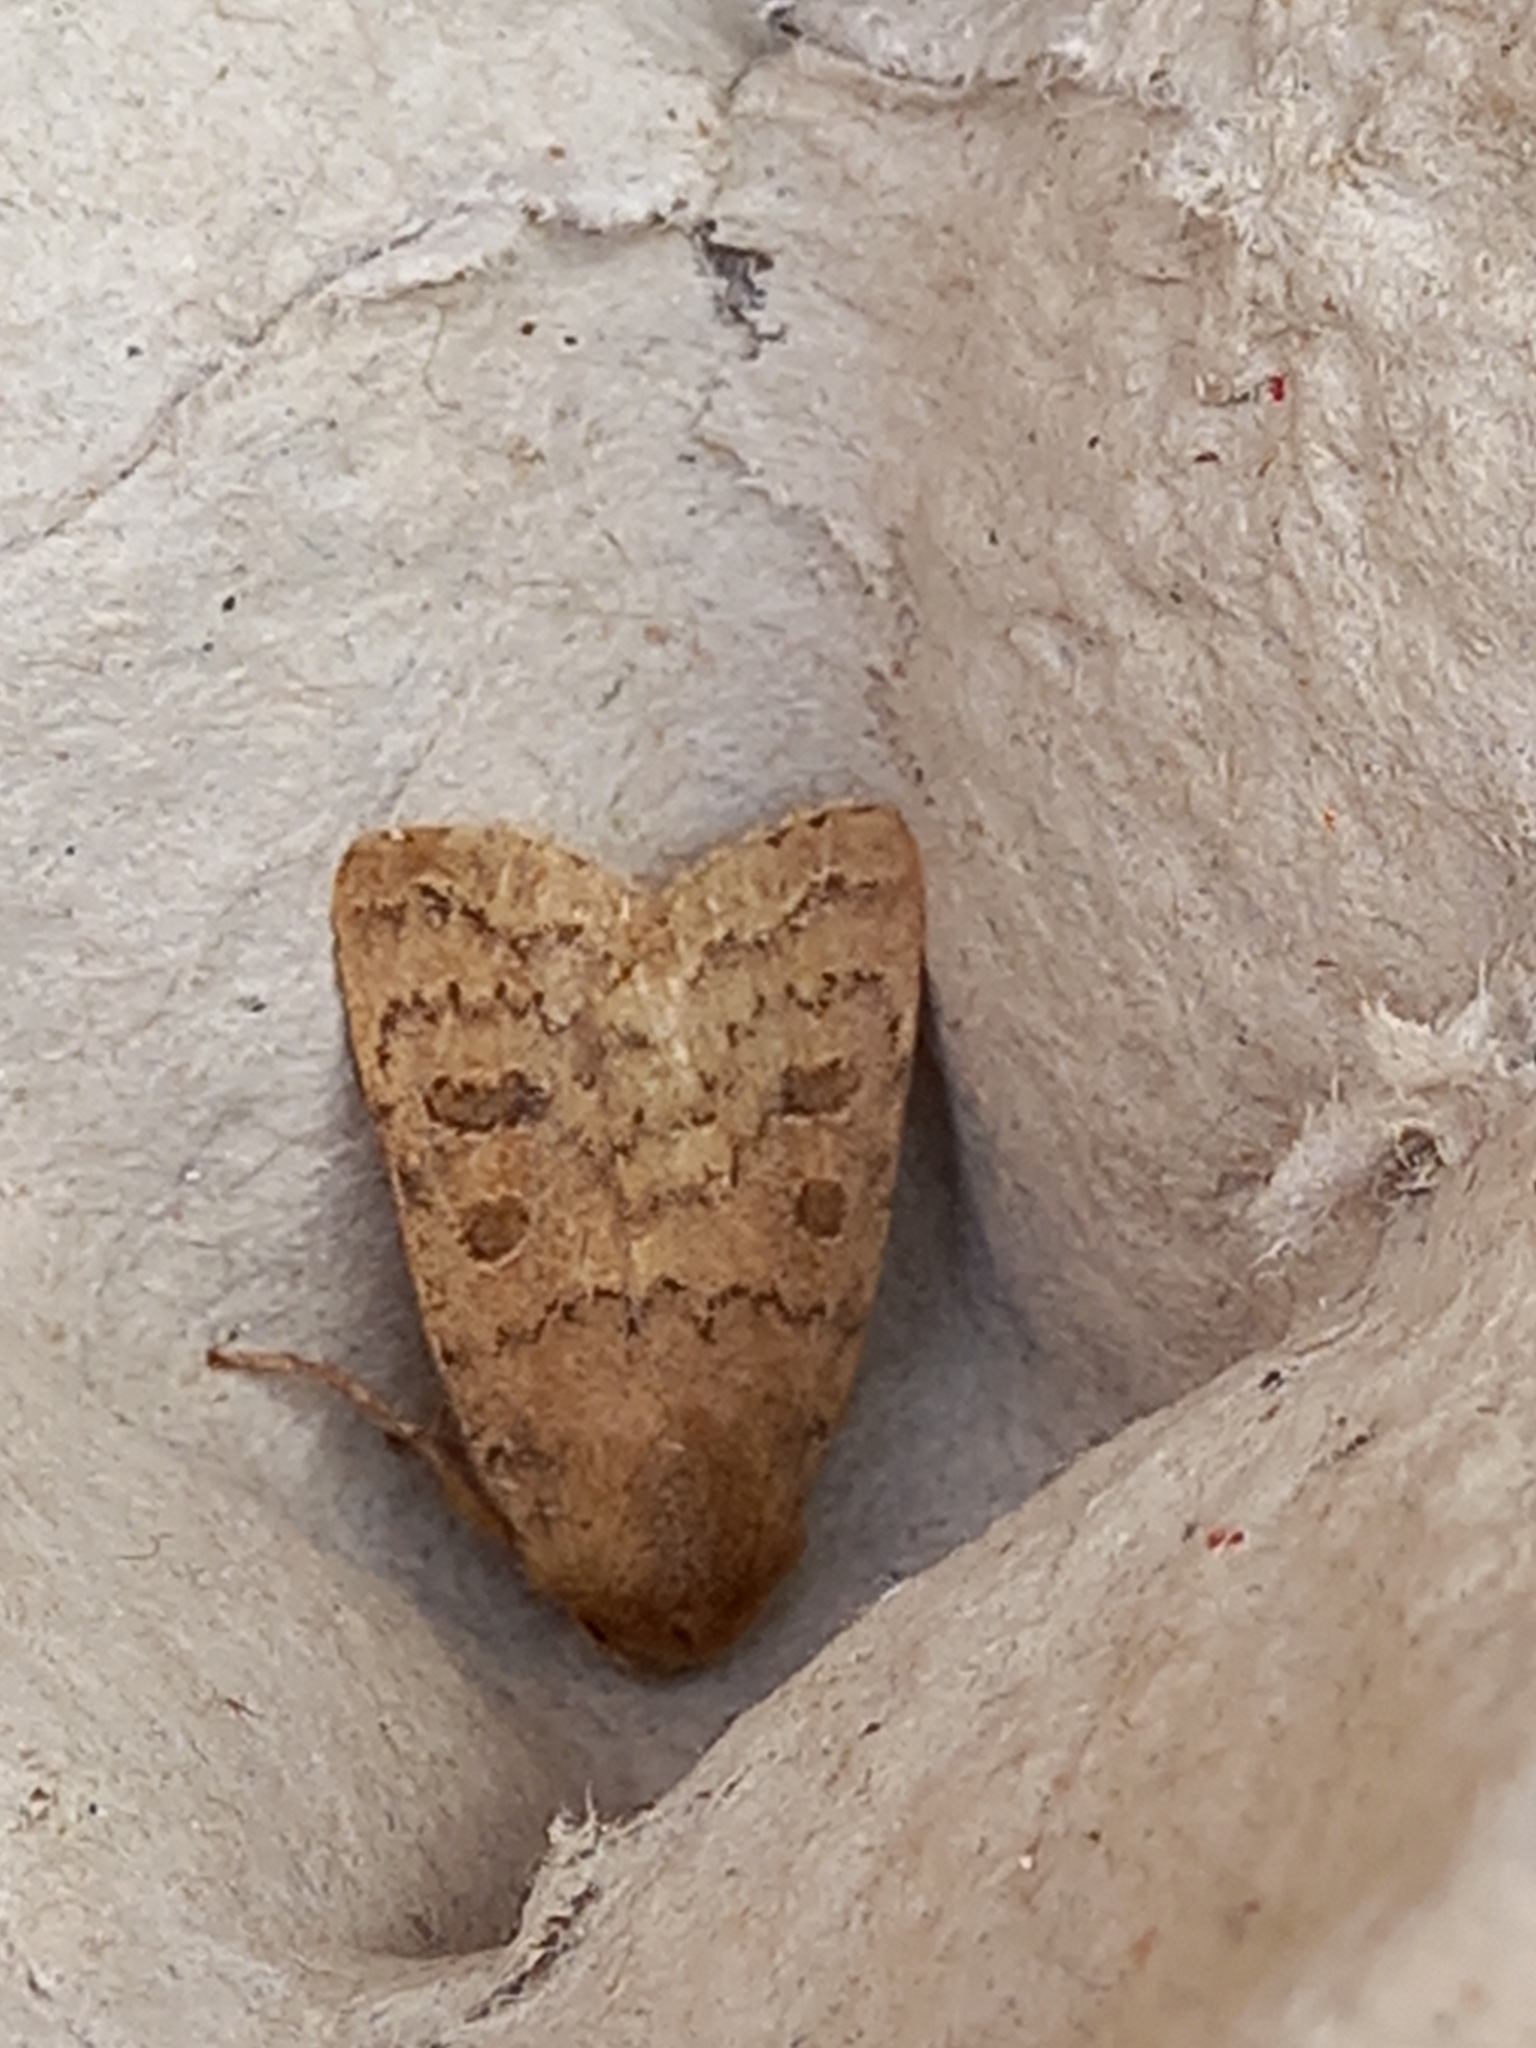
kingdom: Animalia
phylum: Arthropoda
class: Insecta
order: Lepidoptera
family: Noctuidae
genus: Hoplodrina
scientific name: Hoplodrina octogenaria
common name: Uncertain
